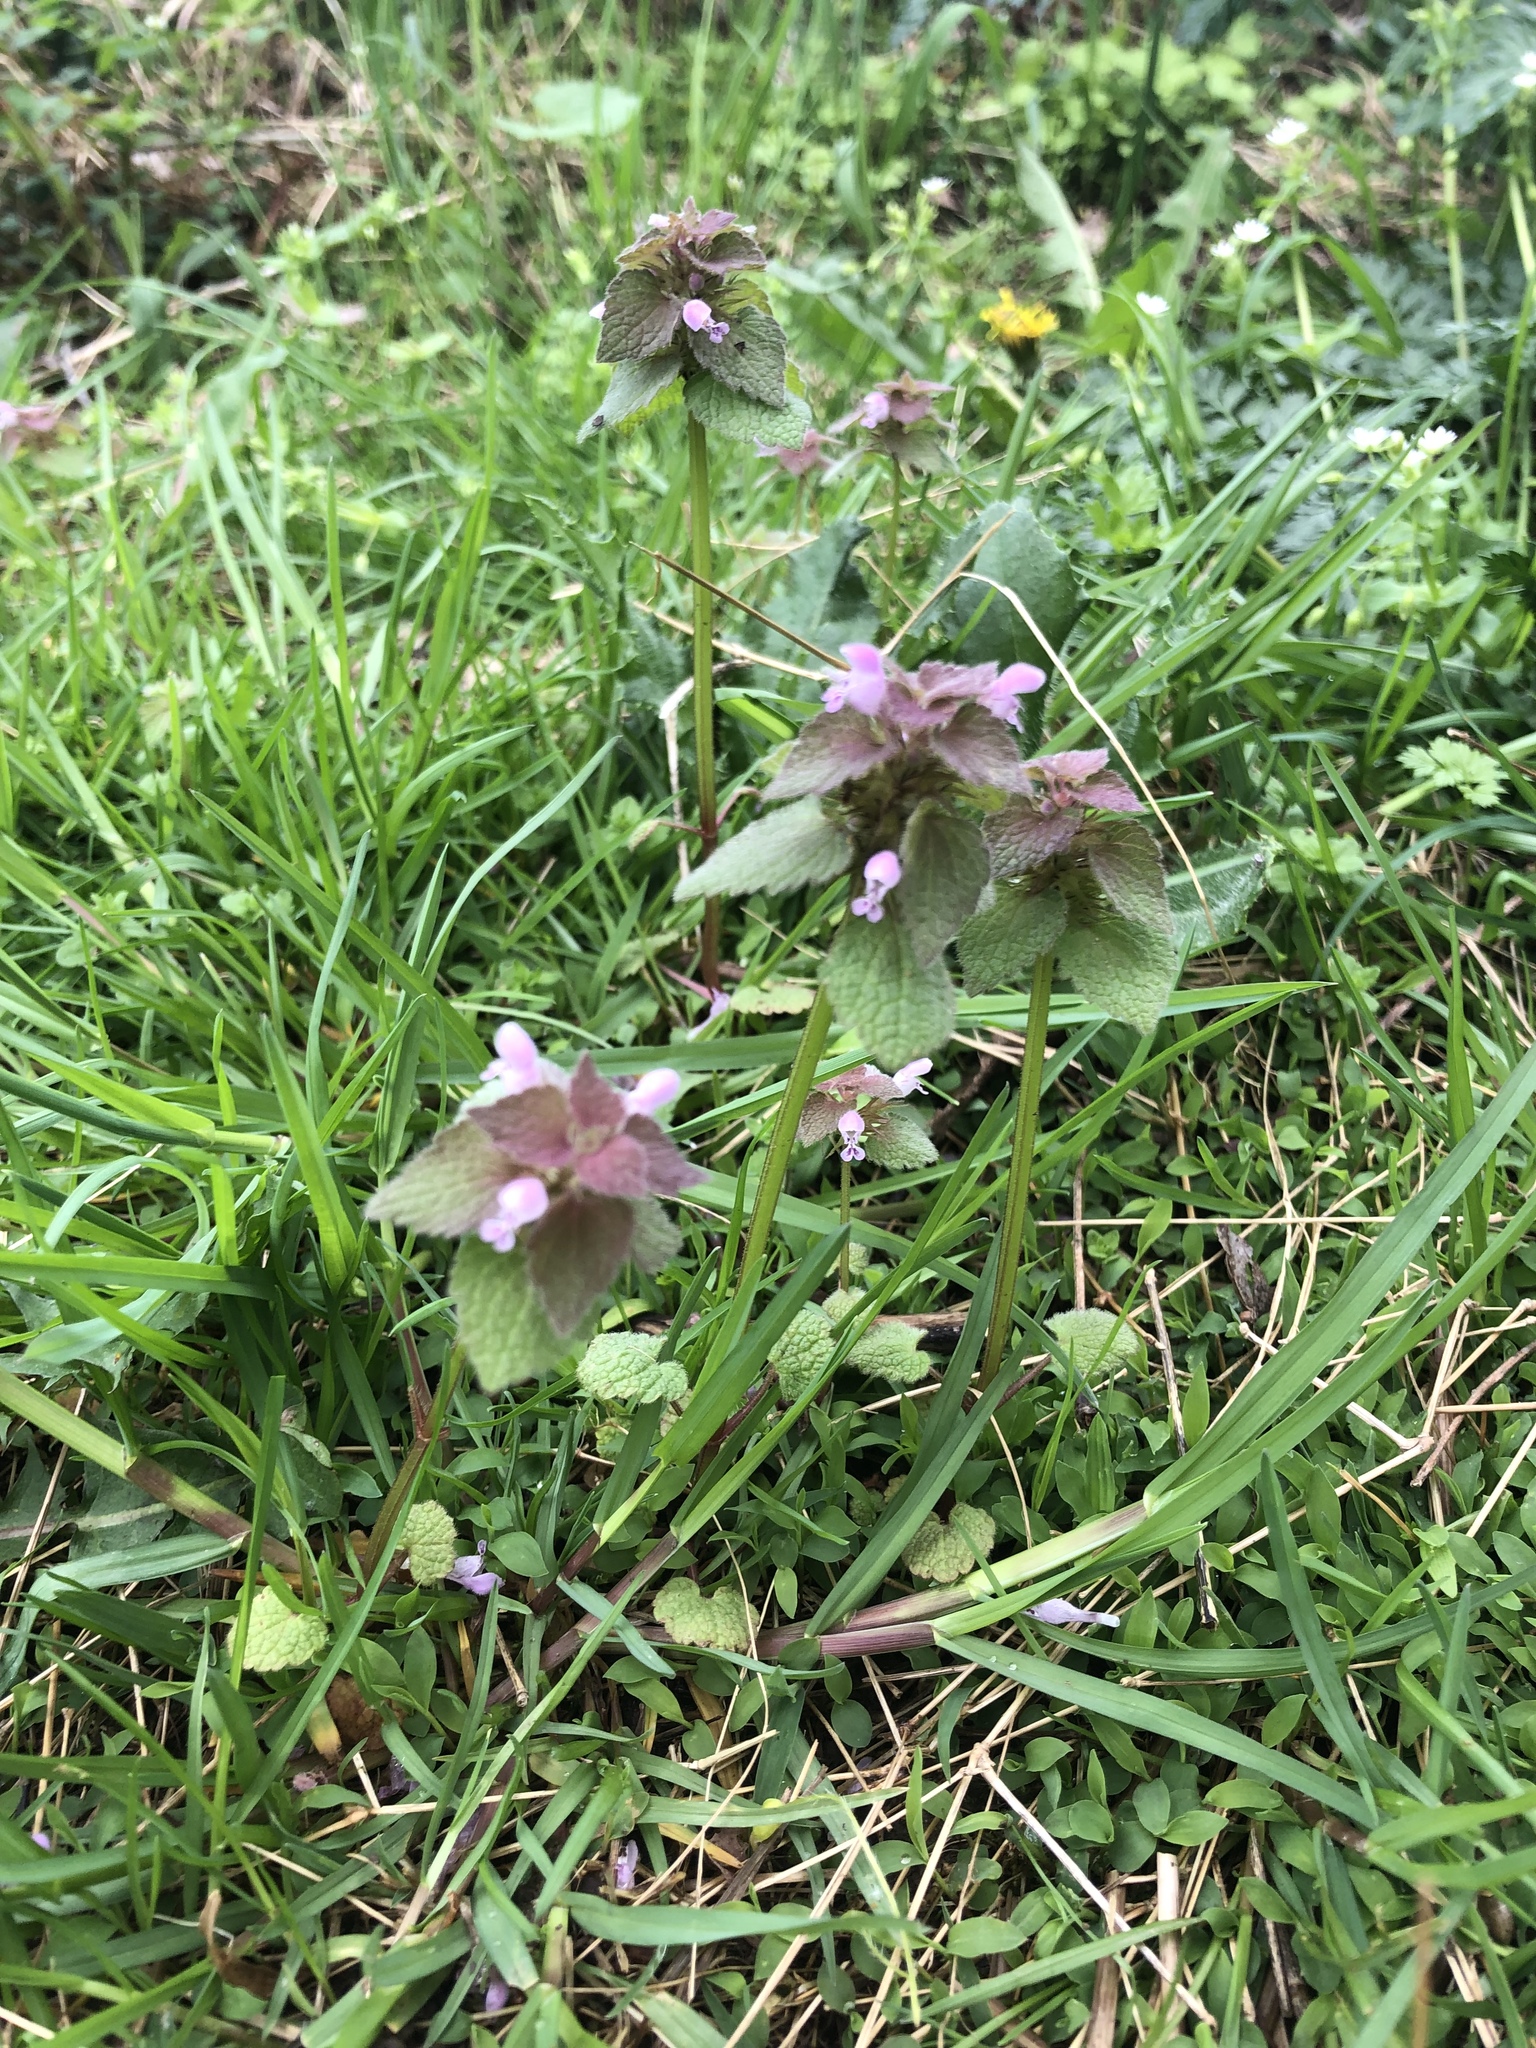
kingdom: Plantae
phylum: Tracheophyta
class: Magnoliopsida
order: Lamiales
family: Lamiaceae
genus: Lamium
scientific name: Lamium purpureum
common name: Red dead-nettle
